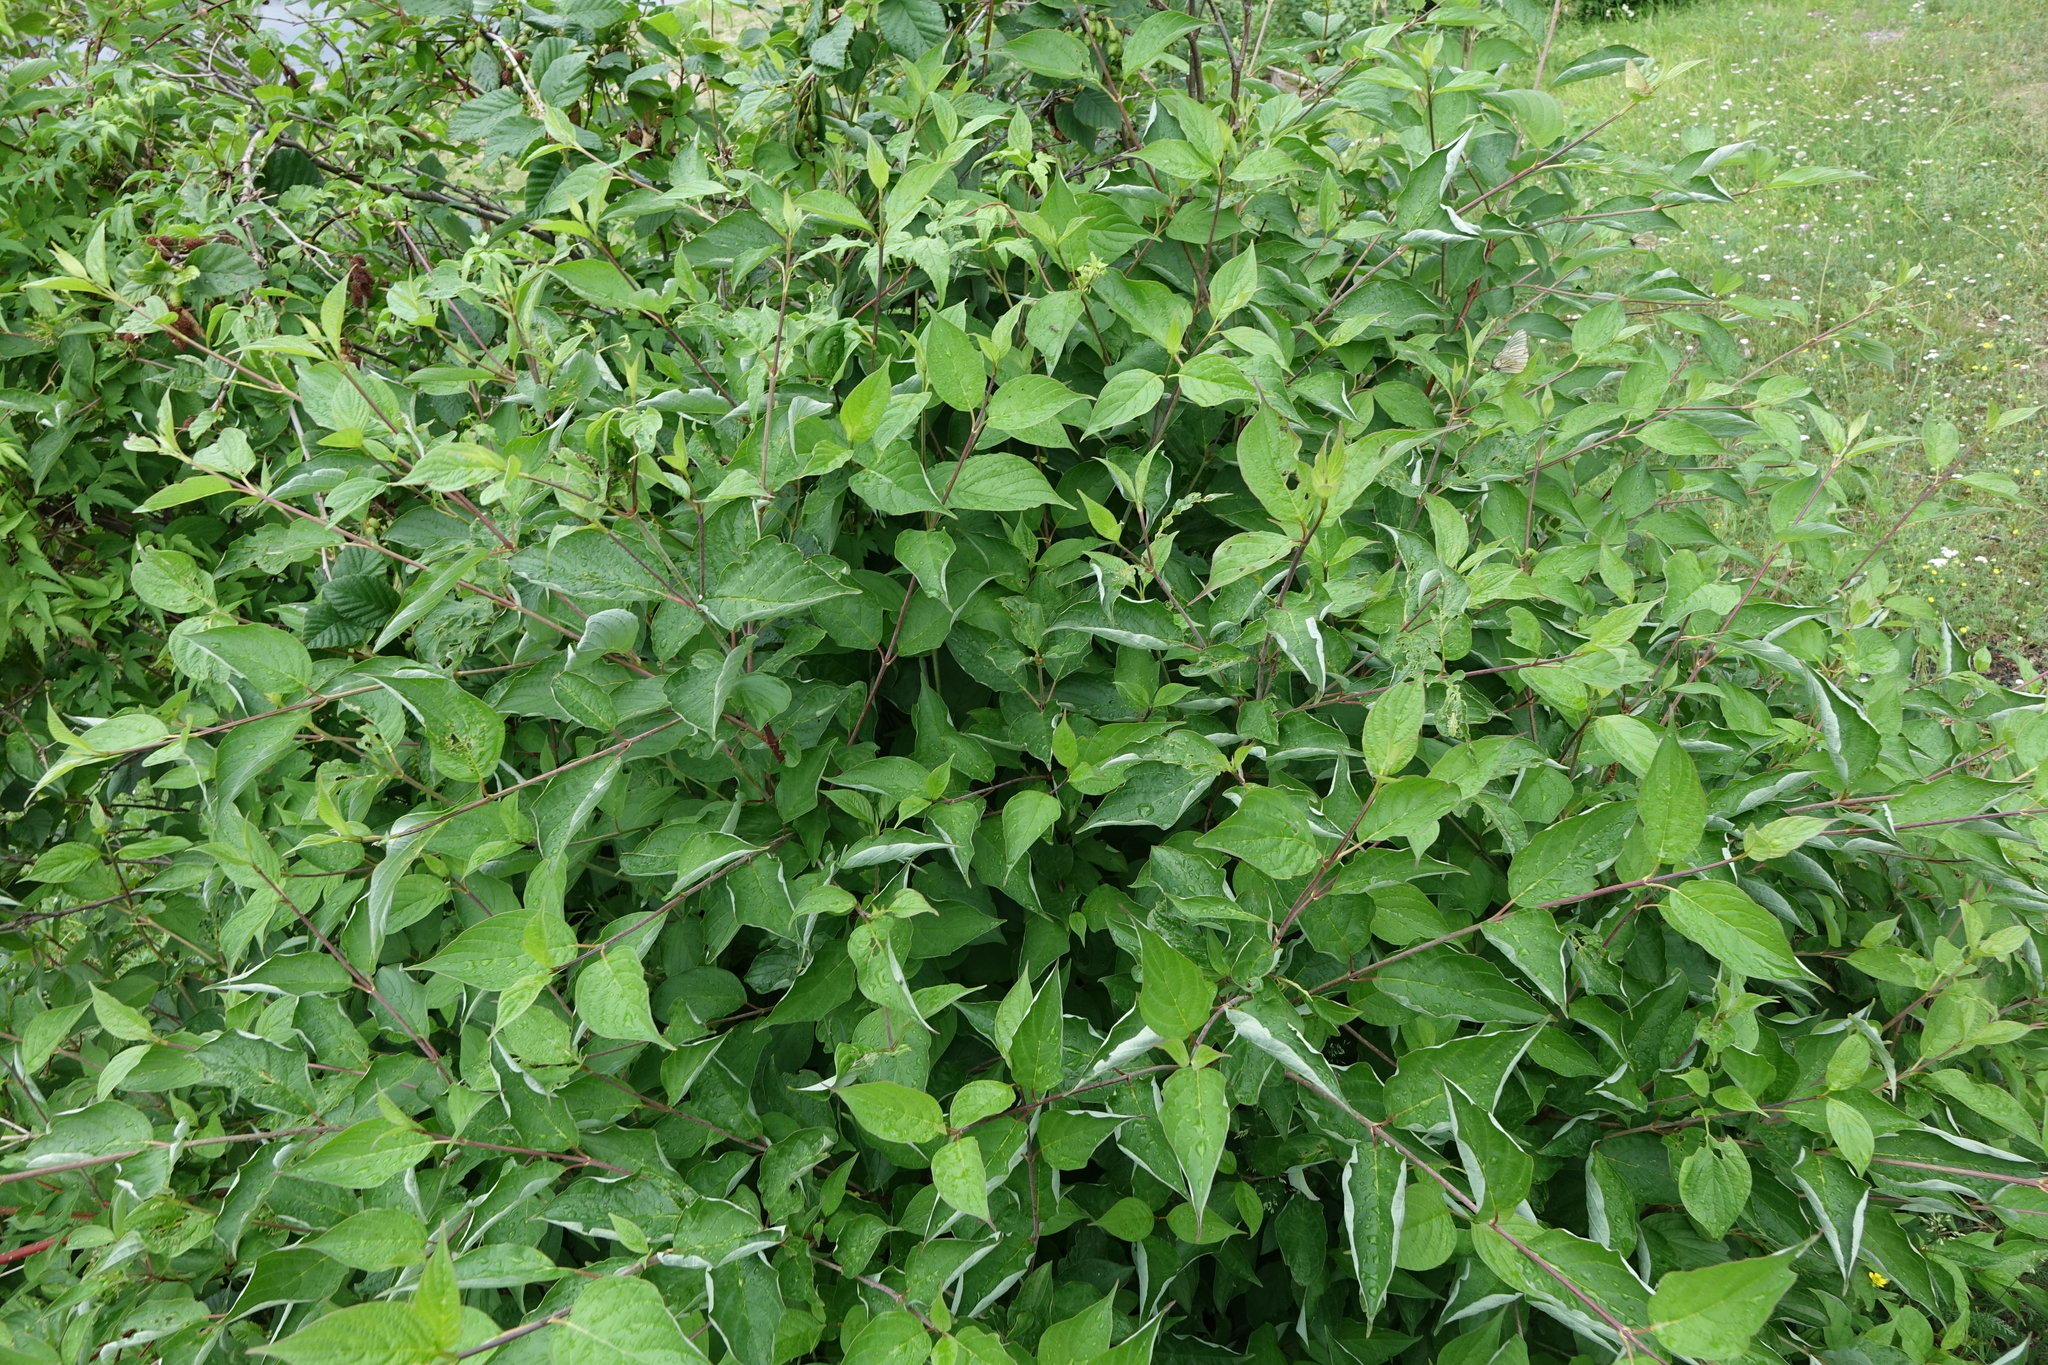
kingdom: Plantae
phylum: Tracheophyta
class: Magnoliopsida
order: Cornales
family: Cornaceae
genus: Cornus
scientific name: Cornus alba
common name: White dogwood
